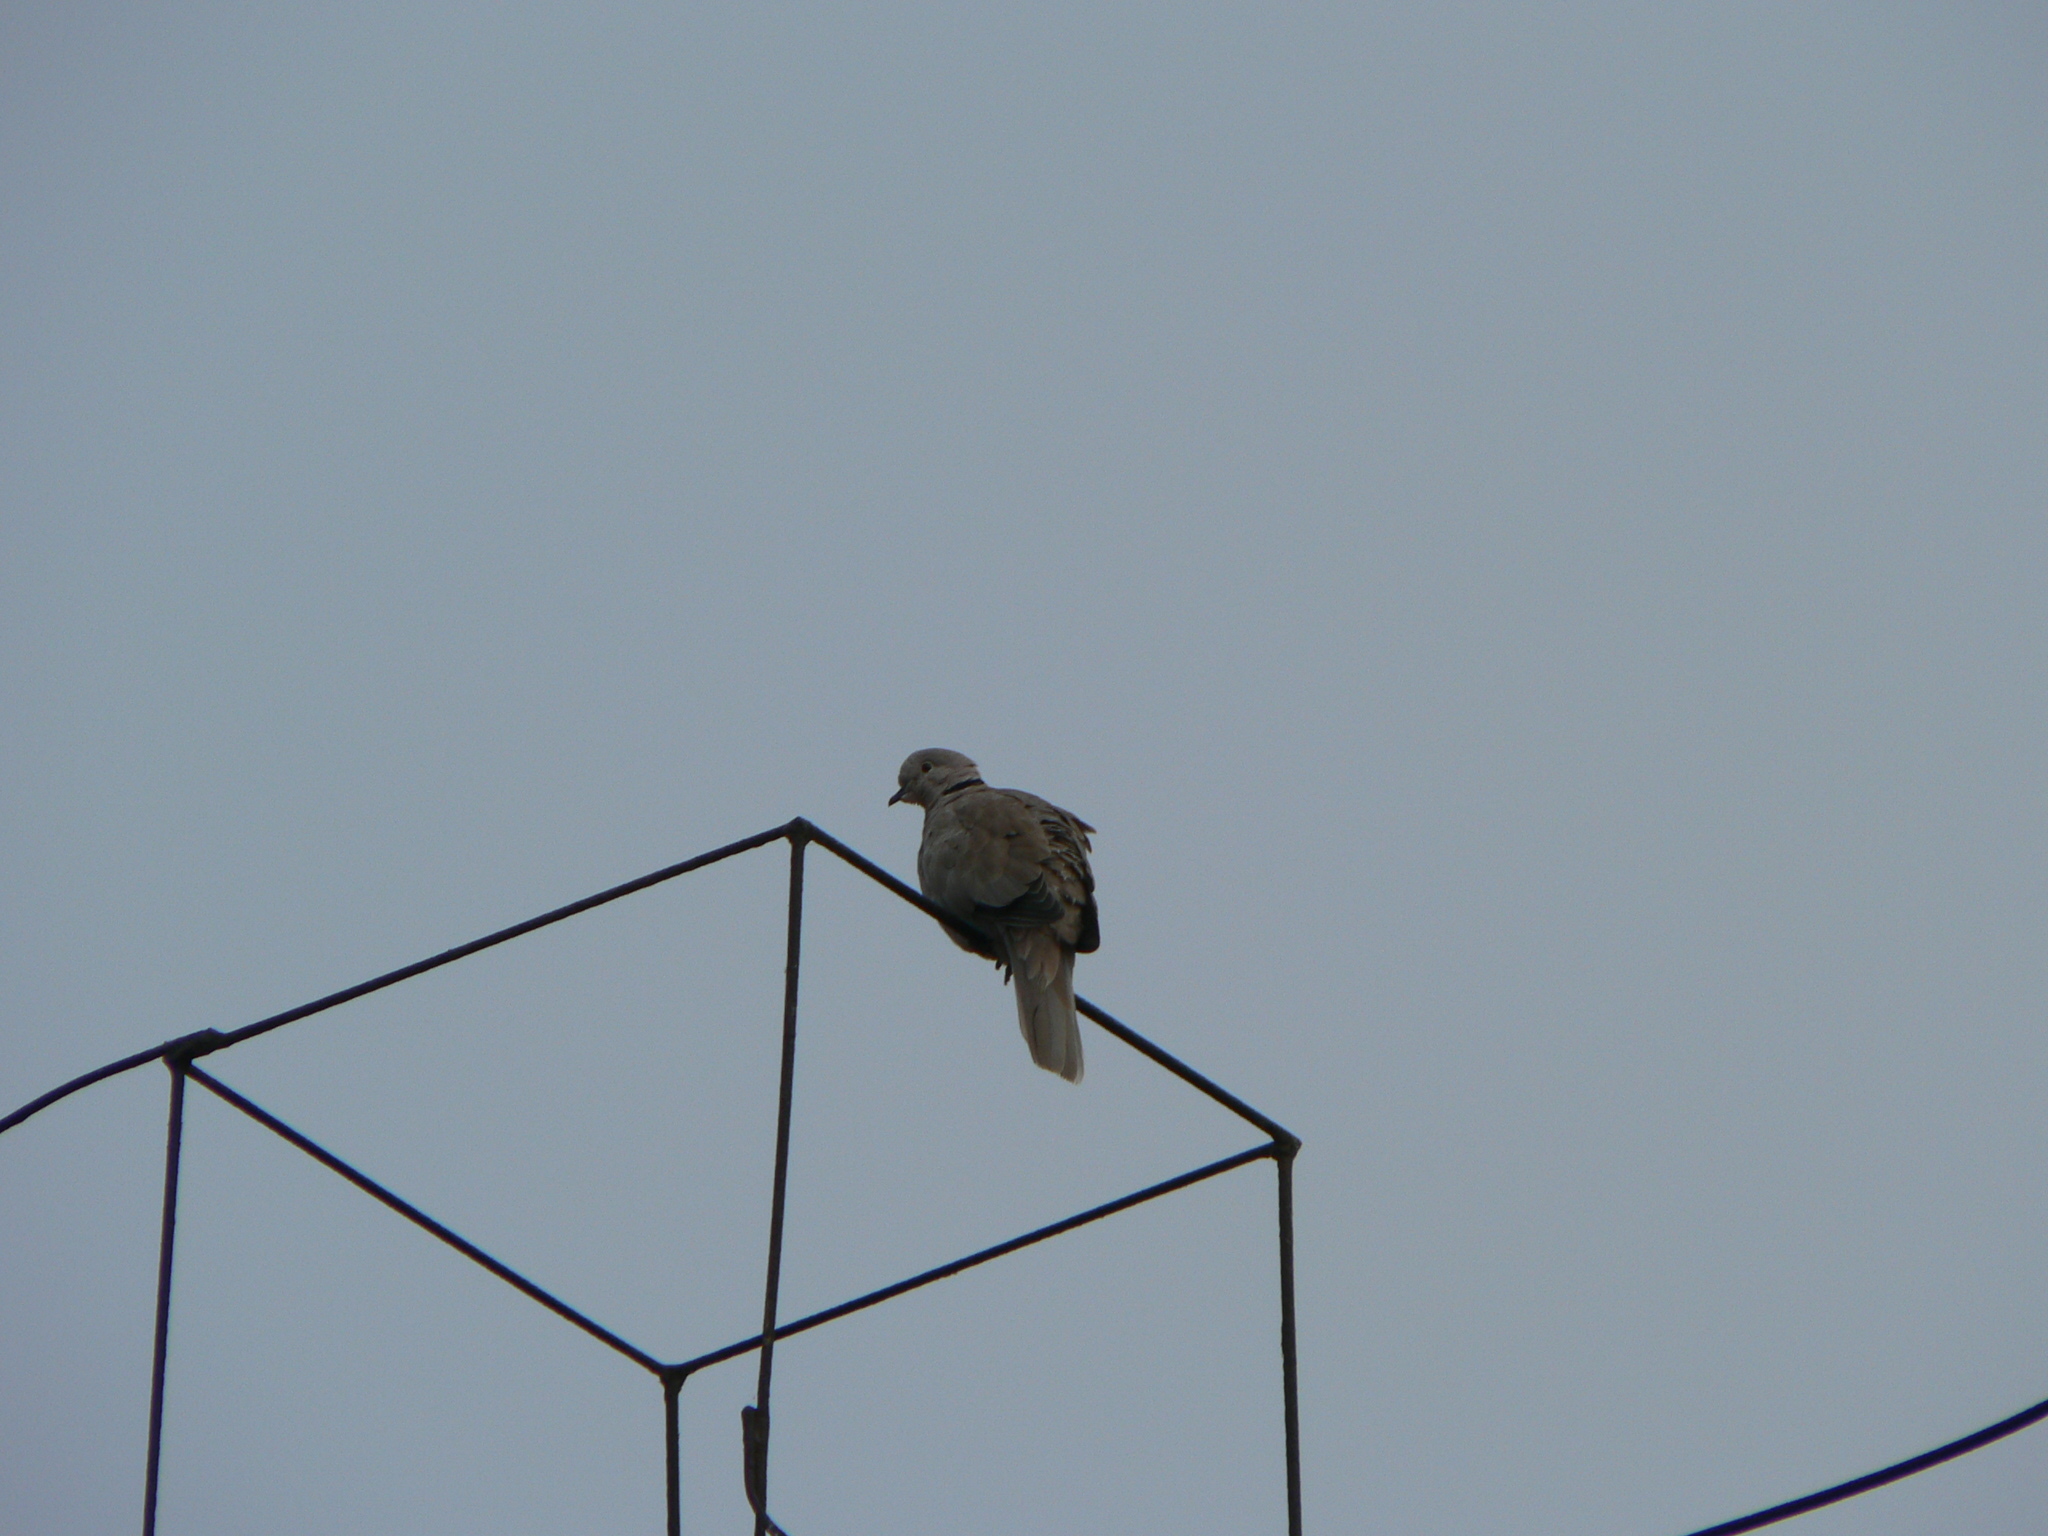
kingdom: Animalia
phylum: Chordata
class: Aves
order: Columbiformes
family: Columbidae
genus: Streptopelia
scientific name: Streptopelia decaocto
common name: Eurasian collared dove
